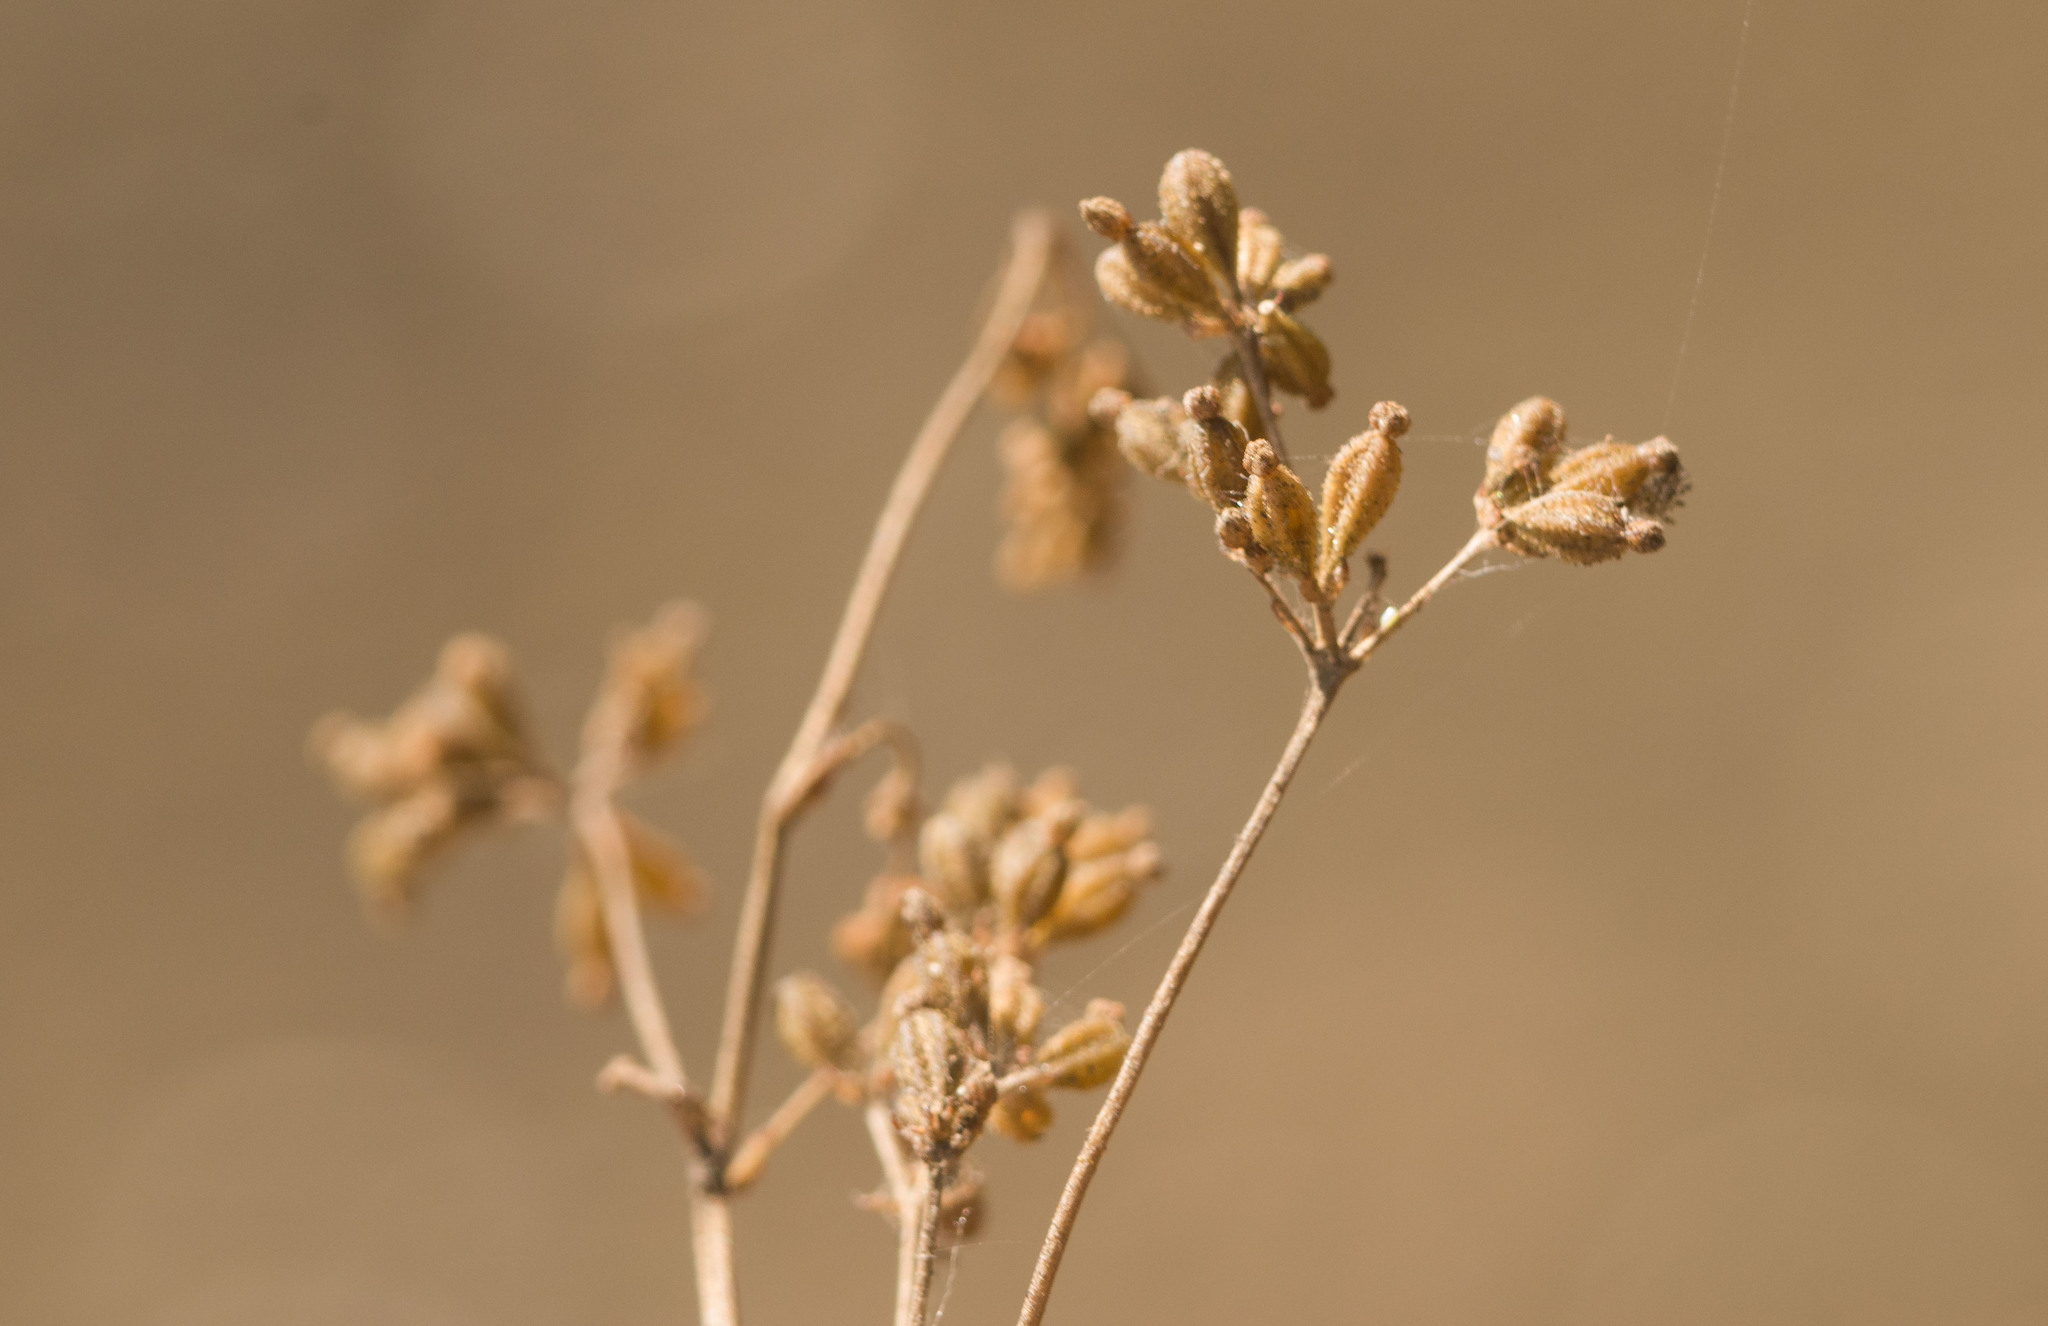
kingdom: Plantae
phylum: Tracheophyta
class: Magnoliopsida
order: Caryophyllales
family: Nyctaginaceae
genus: Boerhavia
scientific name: Boerhavia glabrata
